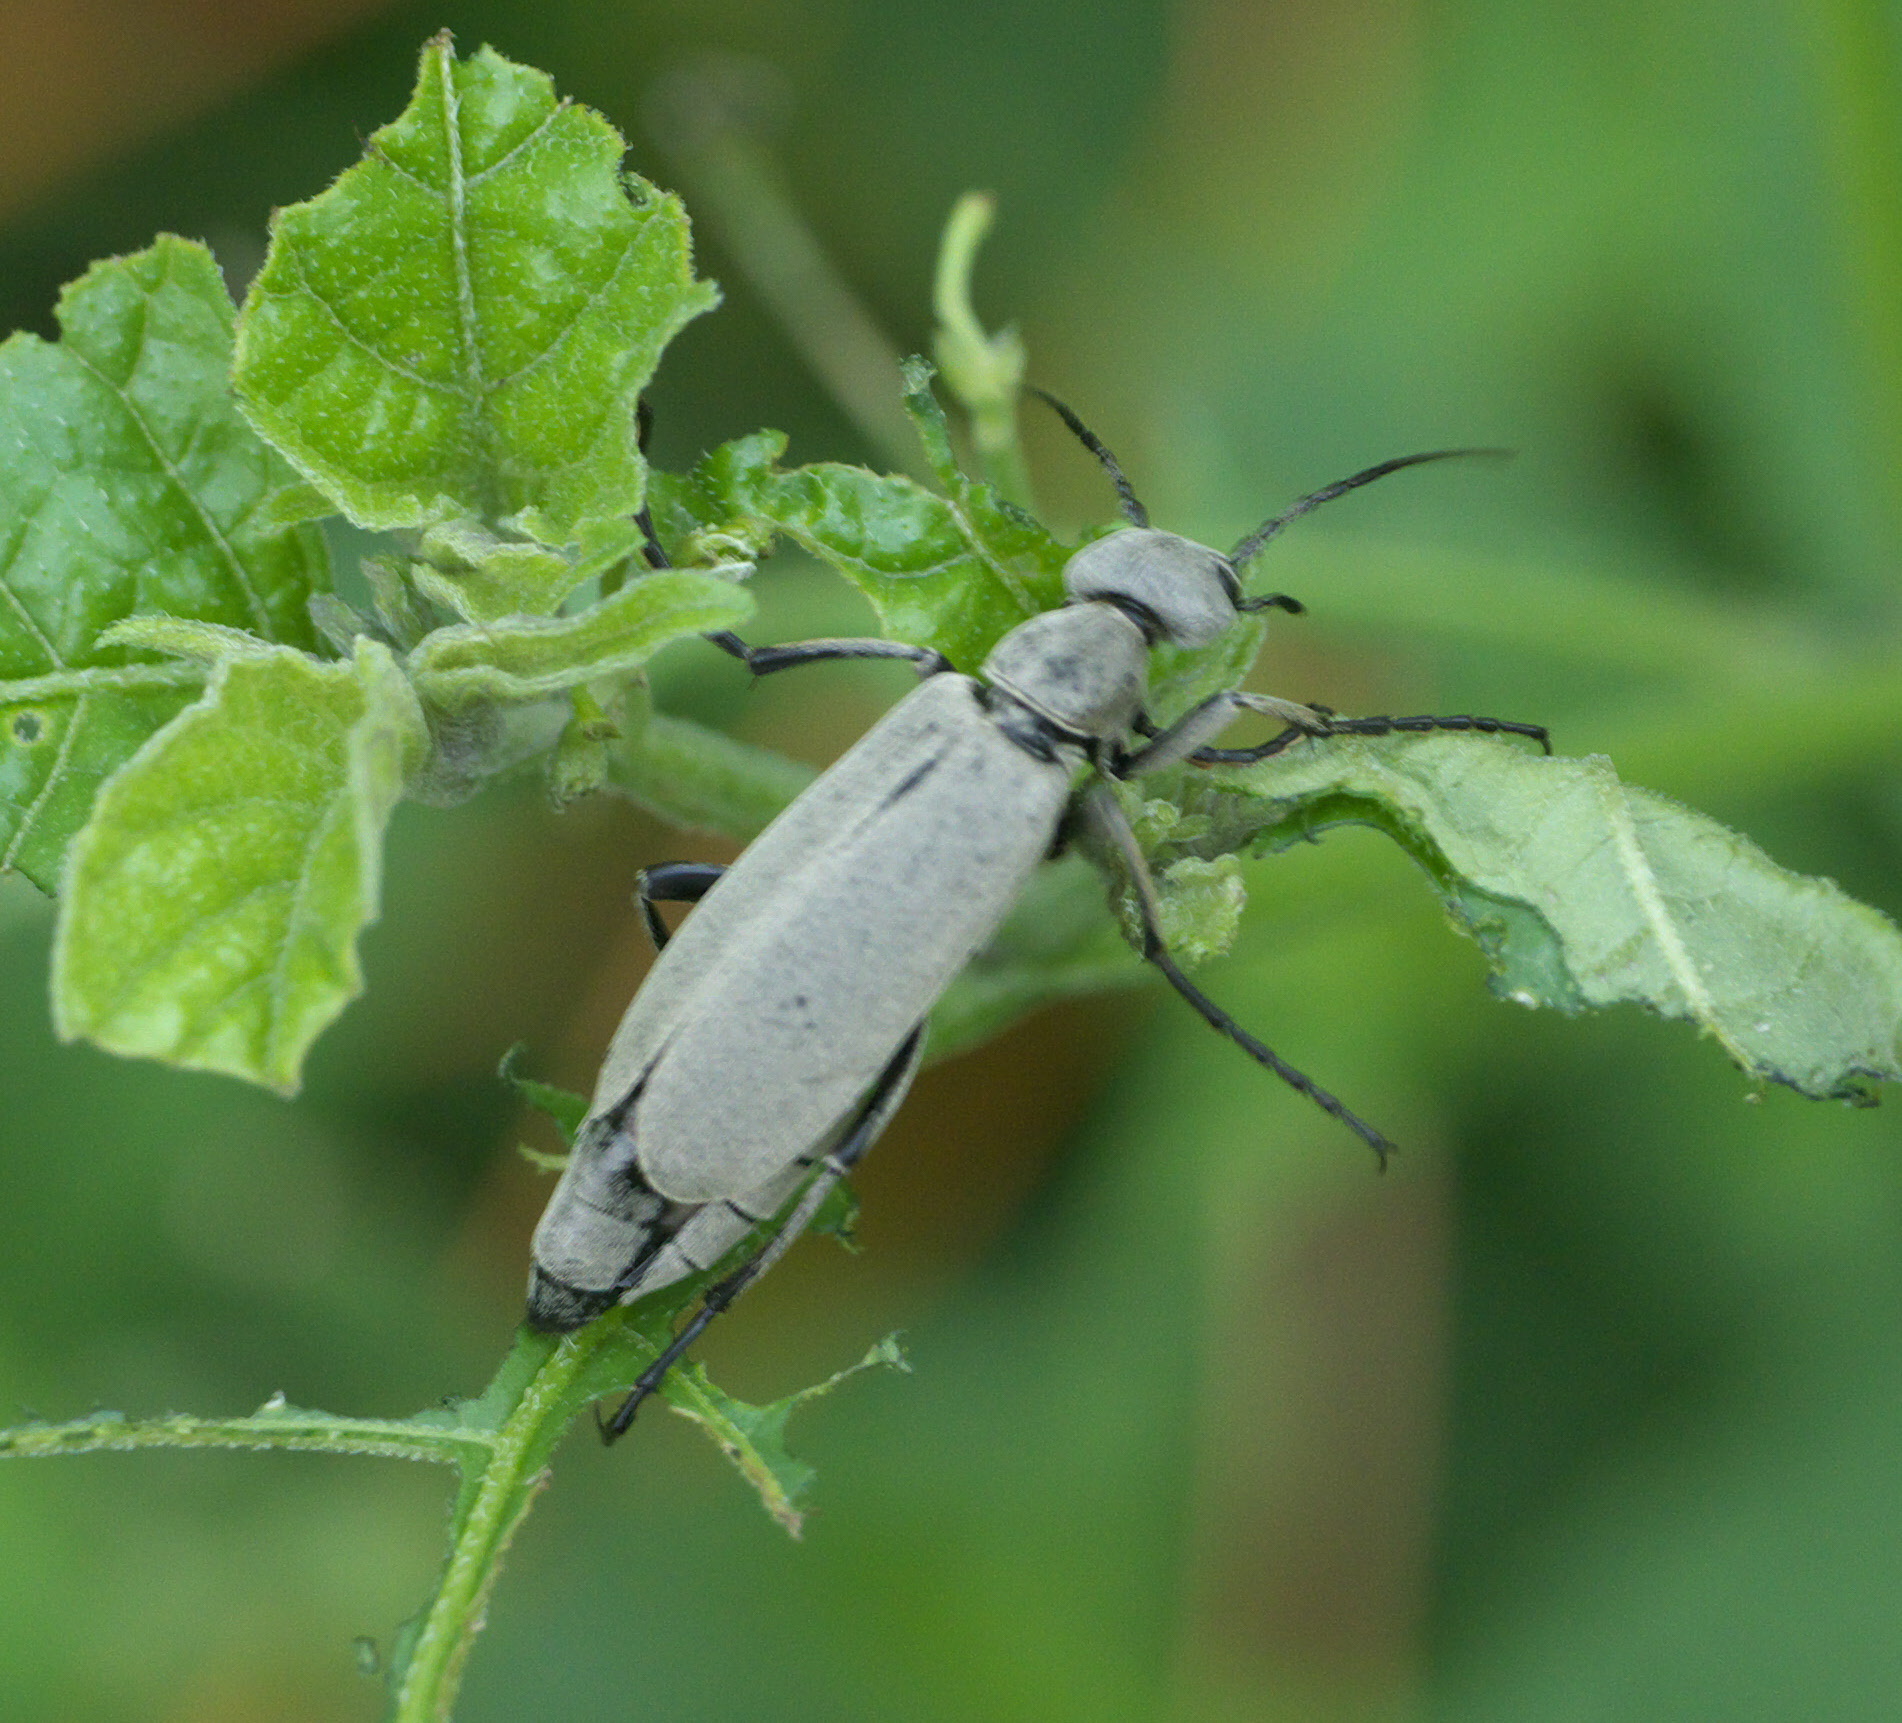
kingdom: Animalia
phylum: Arthropoda
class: Insecta
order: Coleoptera
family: Meloidae
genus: Epicauta
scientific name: Epicauta funebris
